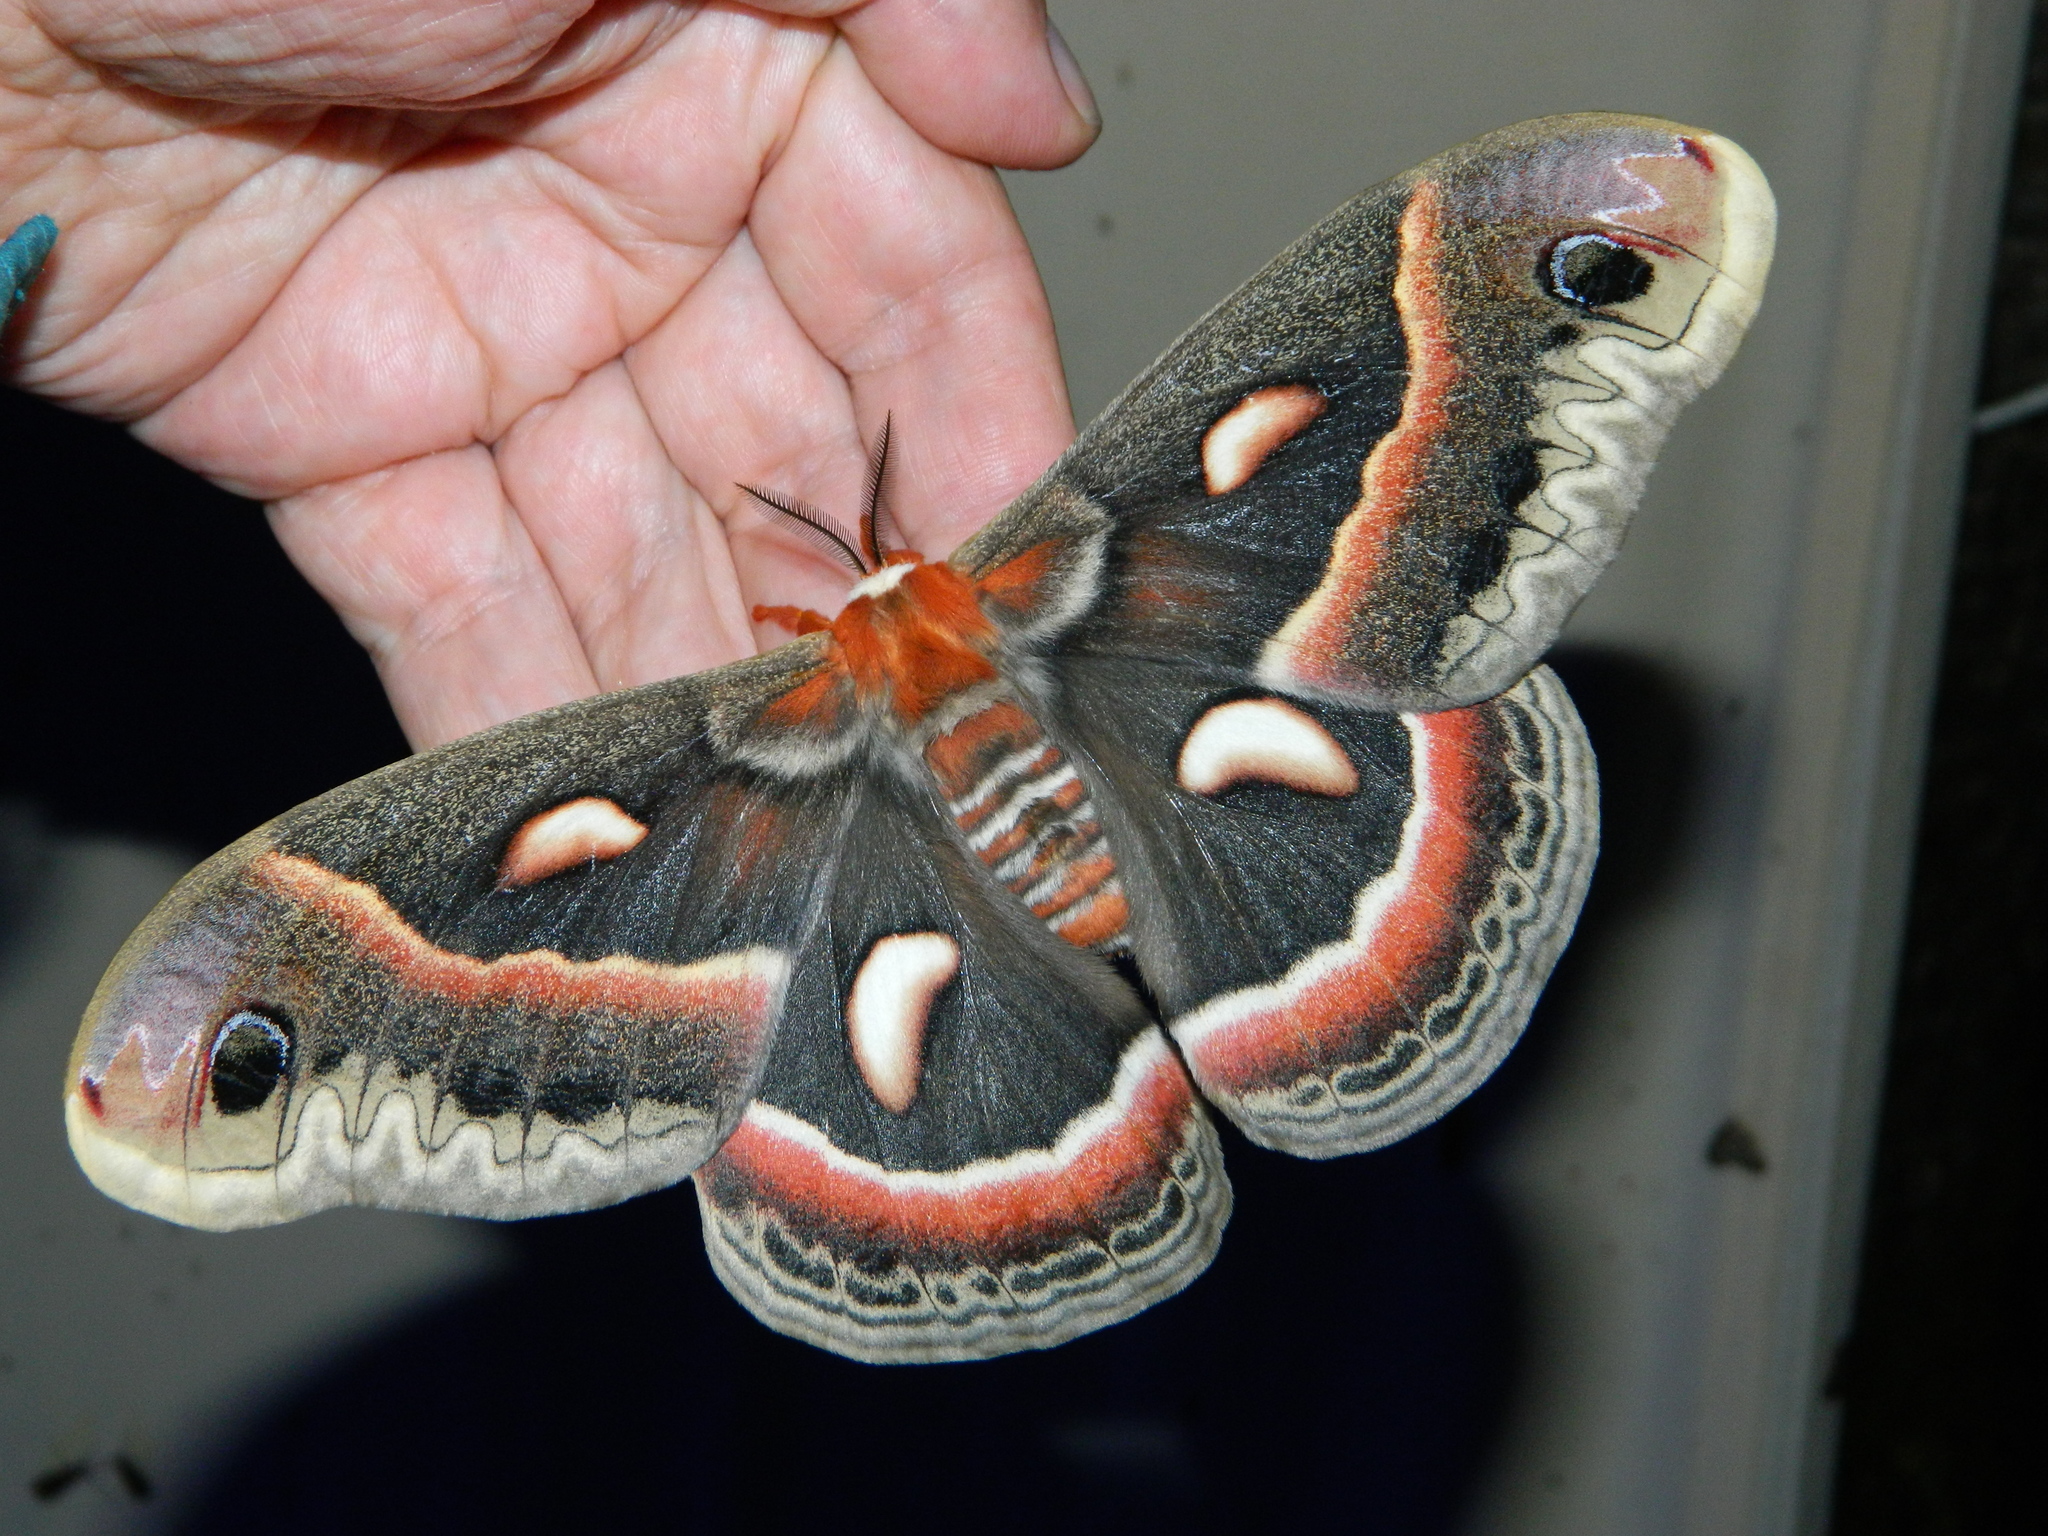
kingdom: Animalia
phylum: Arthropoda
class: Insecta
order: Lepidoptera
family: Saturniidae
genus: Hyalophora
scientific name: Hyalophora cecropia
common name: Cecropia silkmoth
